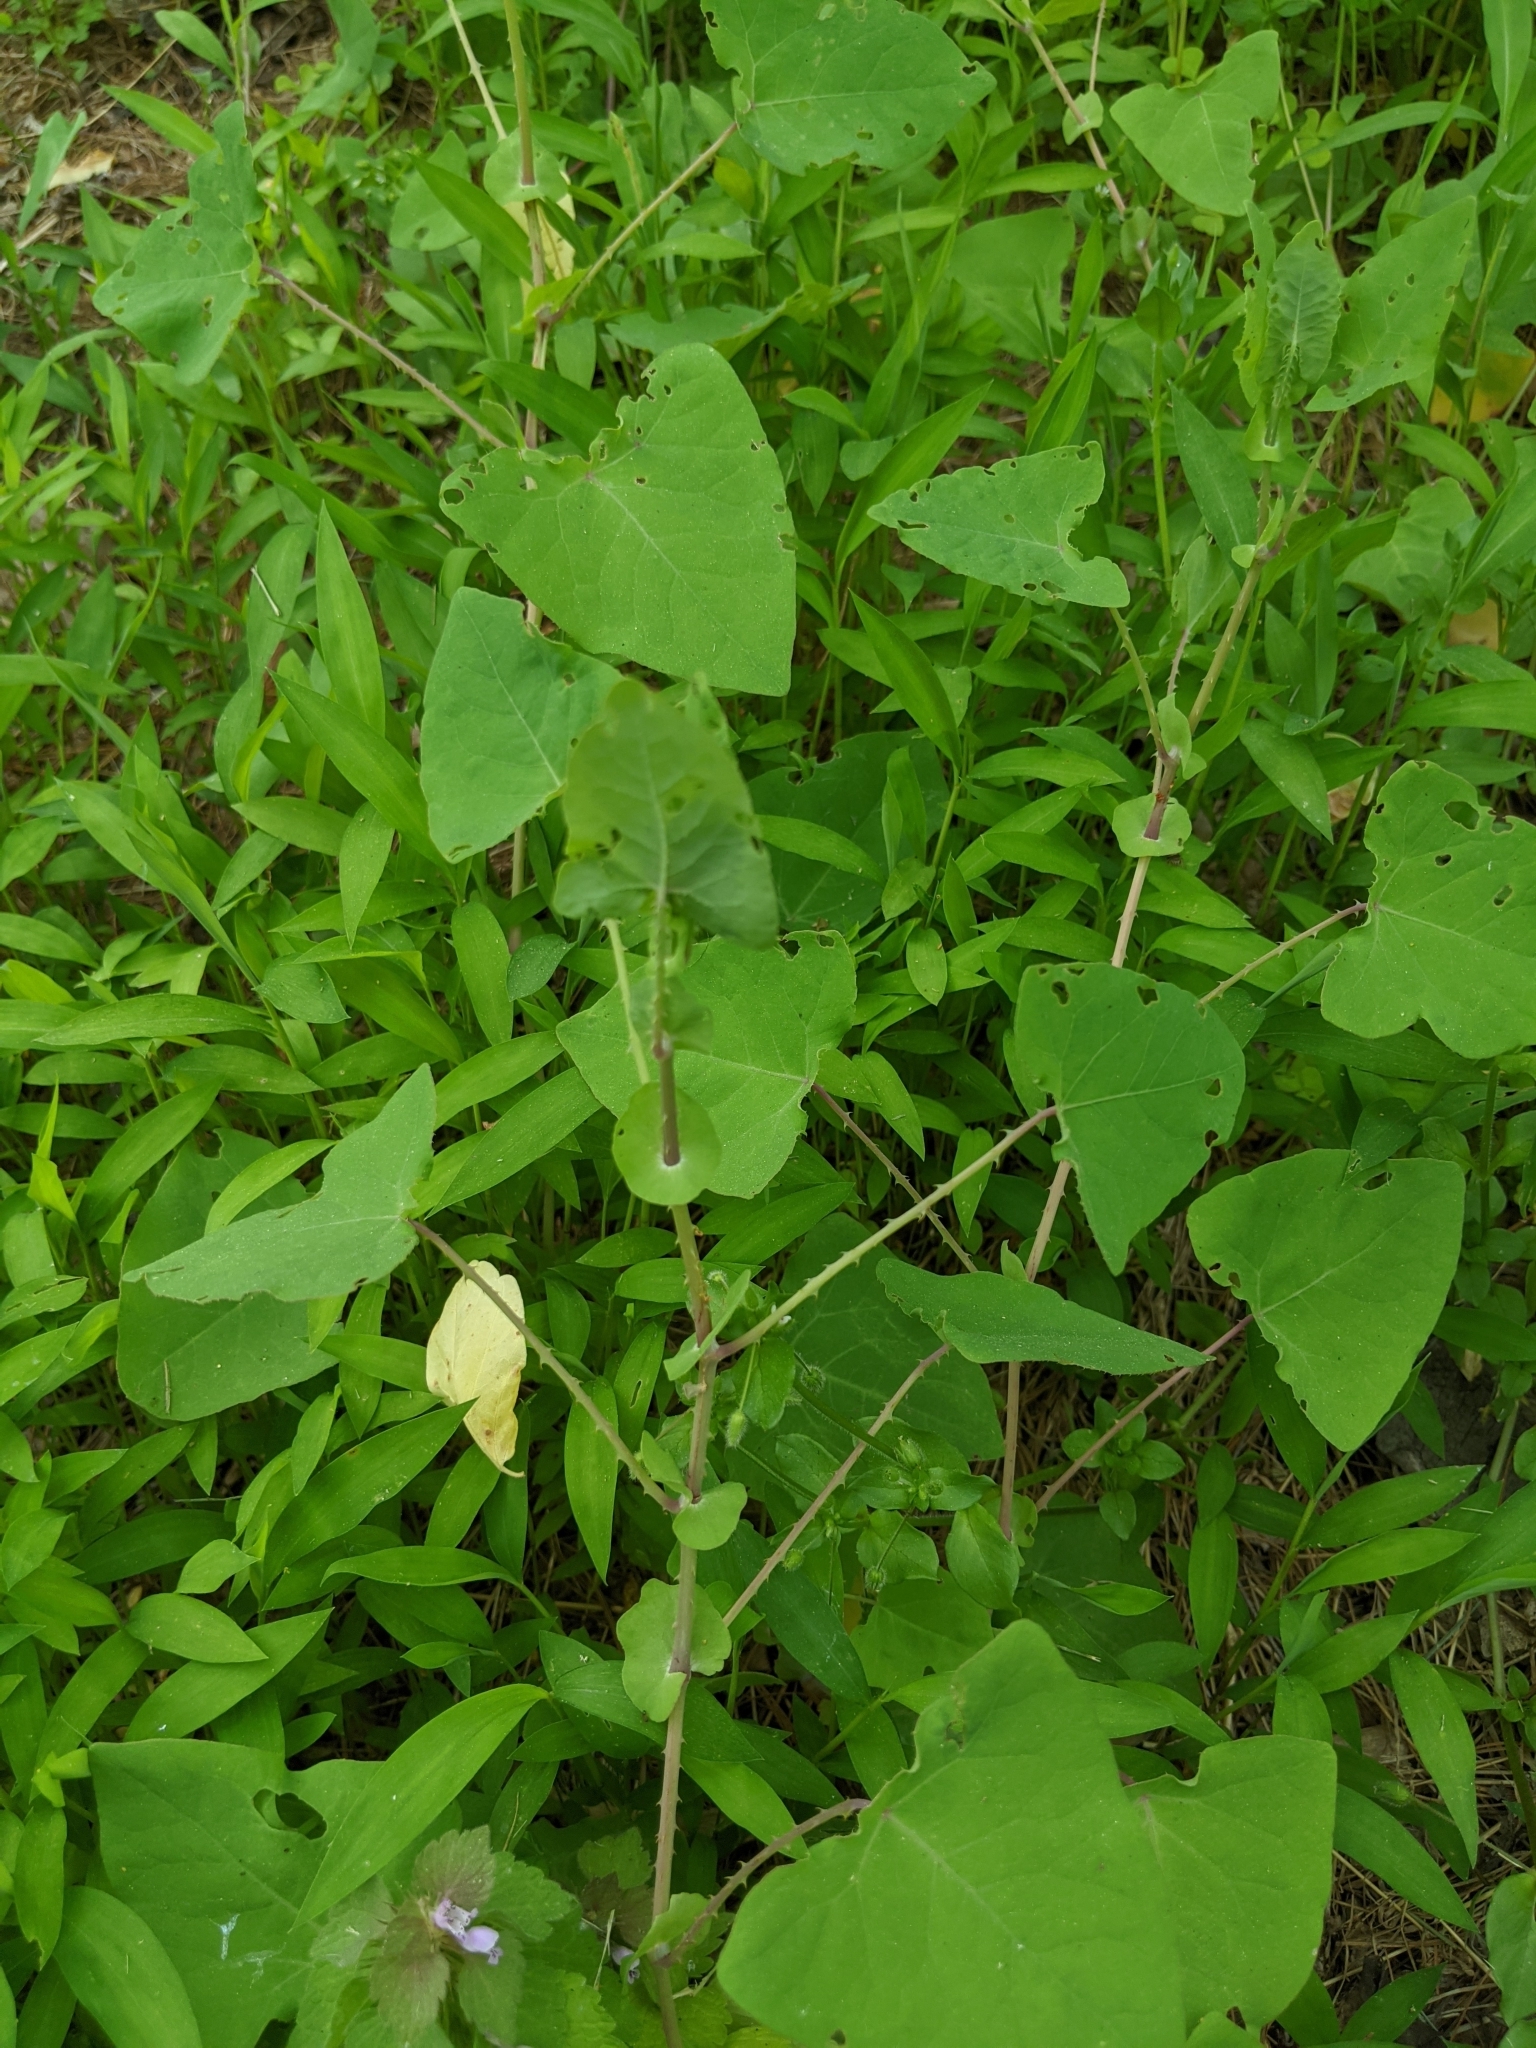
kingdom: Plantae
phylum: Tracheophyta
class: Magnoliopsida
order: Caryophyllales
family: Polygonaceae
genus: Persicaria
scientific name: Persicaria perfoliata
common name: Asiatic tearthumb
